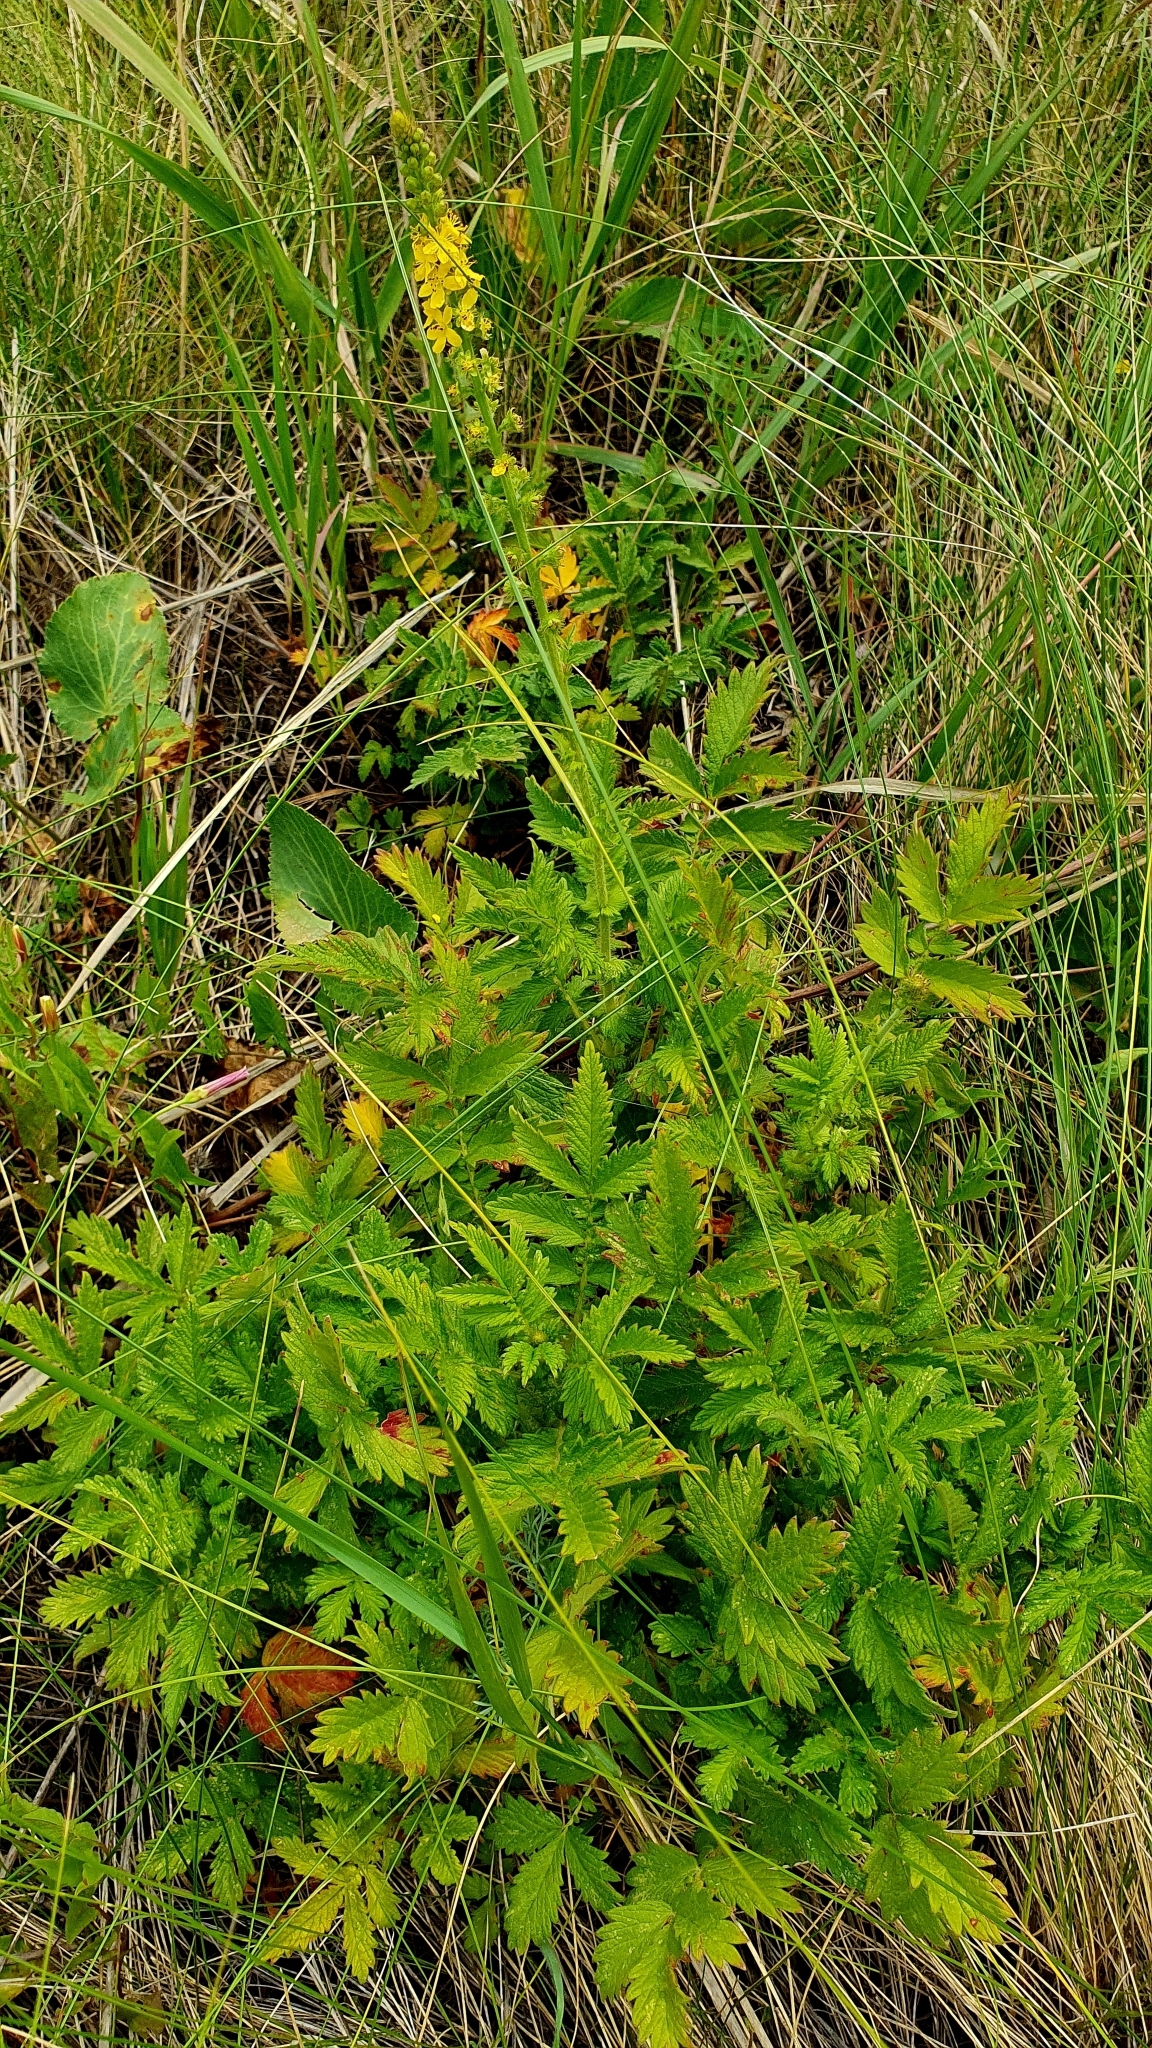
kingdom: Plantae
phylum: Tracheophyta
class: Magnoliopsida
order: Rosales
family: Rosaceae
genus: Agrimonia
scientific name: Agrimonia eupatoria
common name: Agrimony
